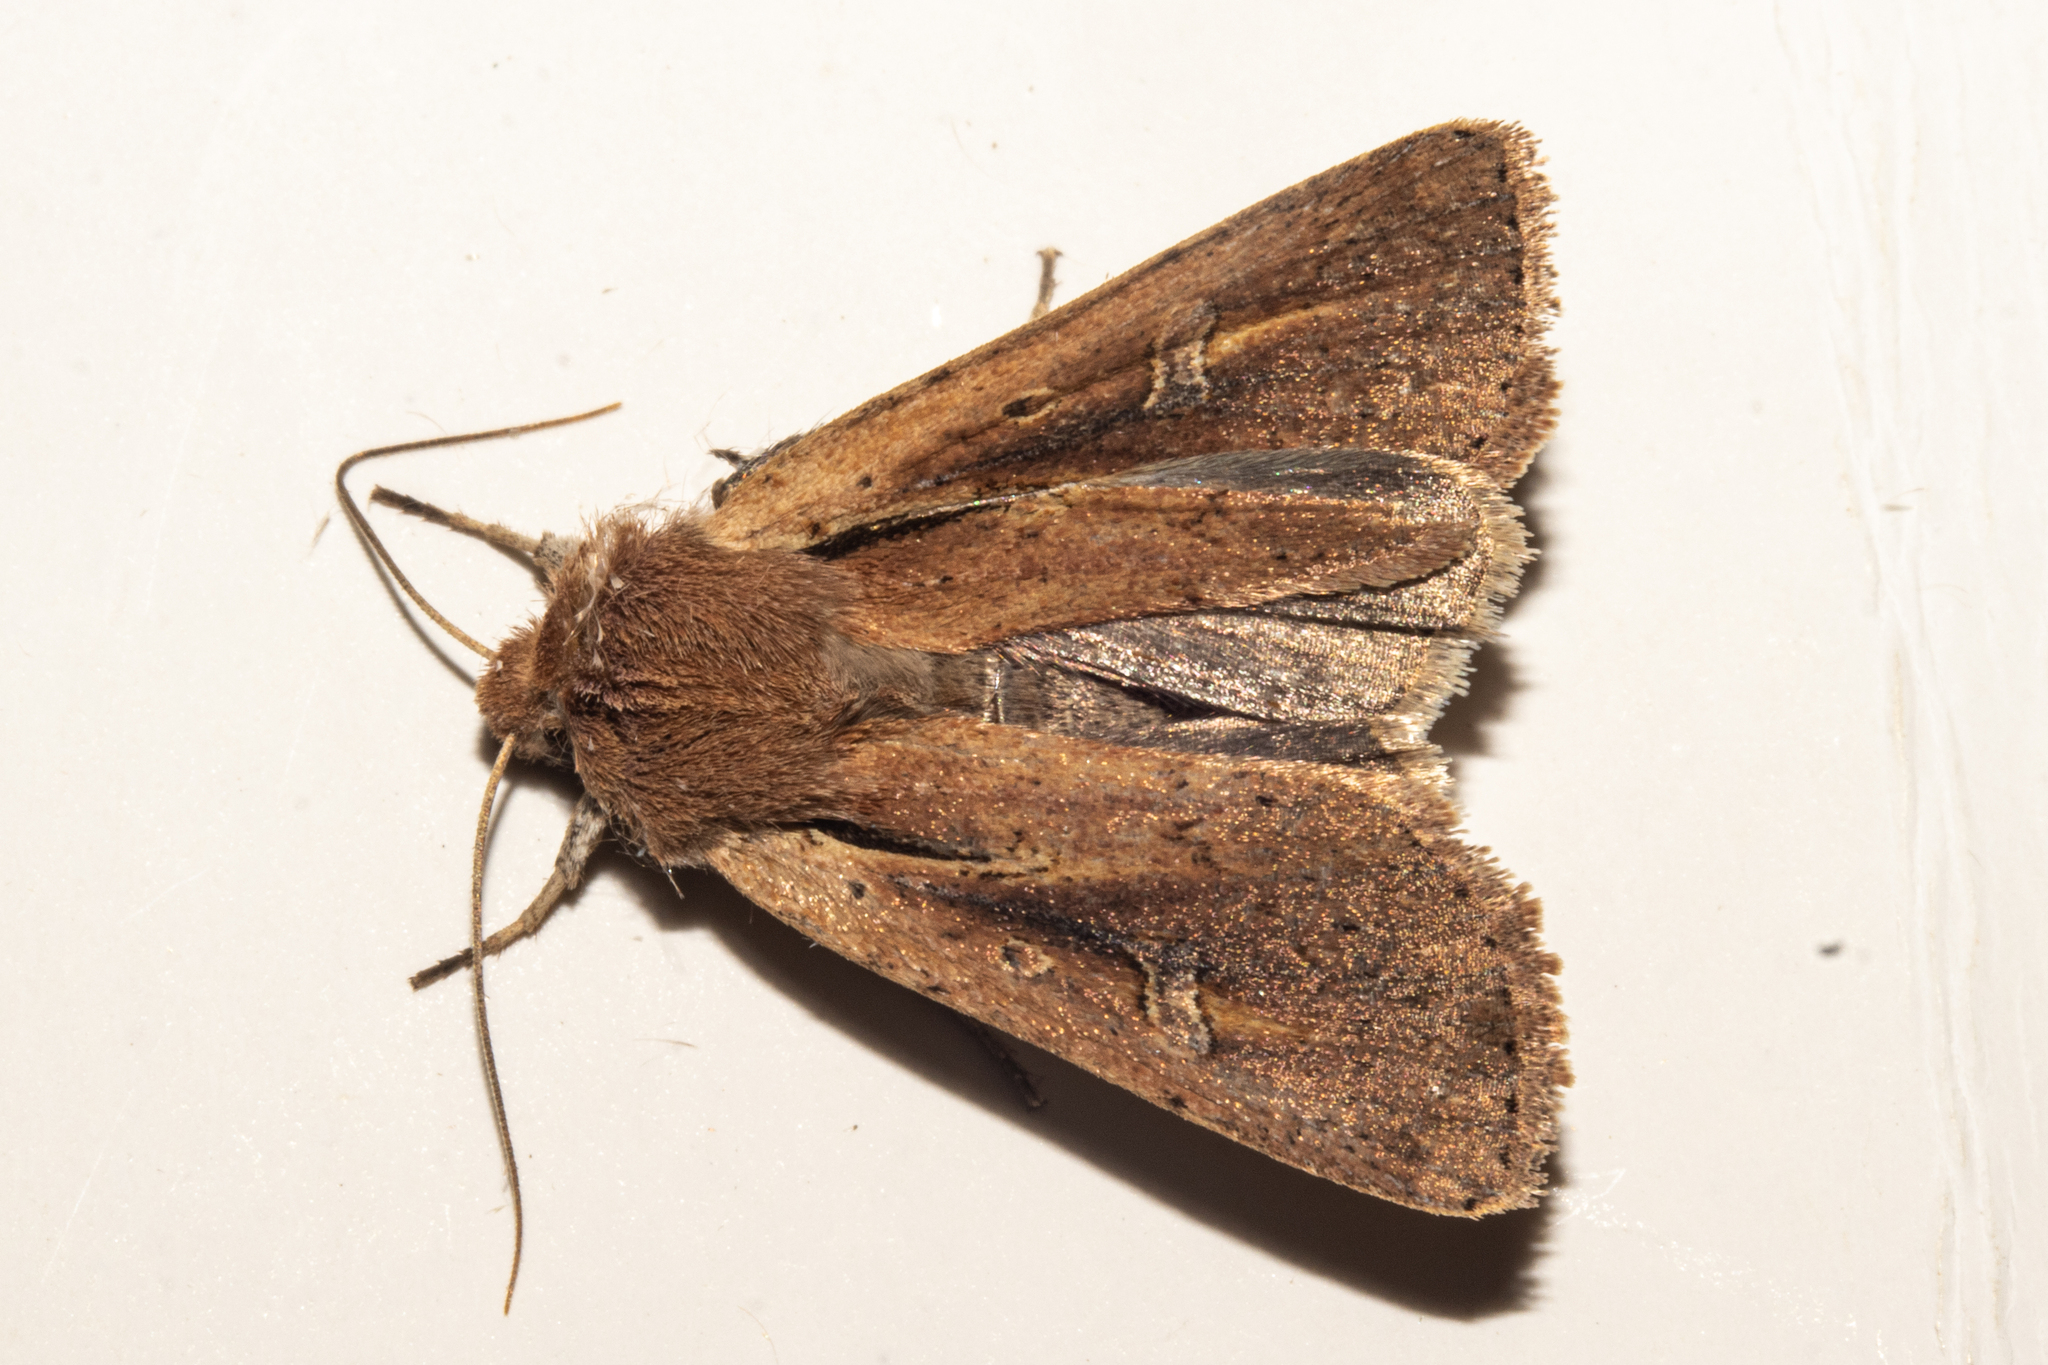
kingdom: Animalia
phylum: Arthropoda
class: Insecta
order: Lepidoptera
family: Noctuidae
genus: Ichneutica
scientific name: Ichneutica atristriga
